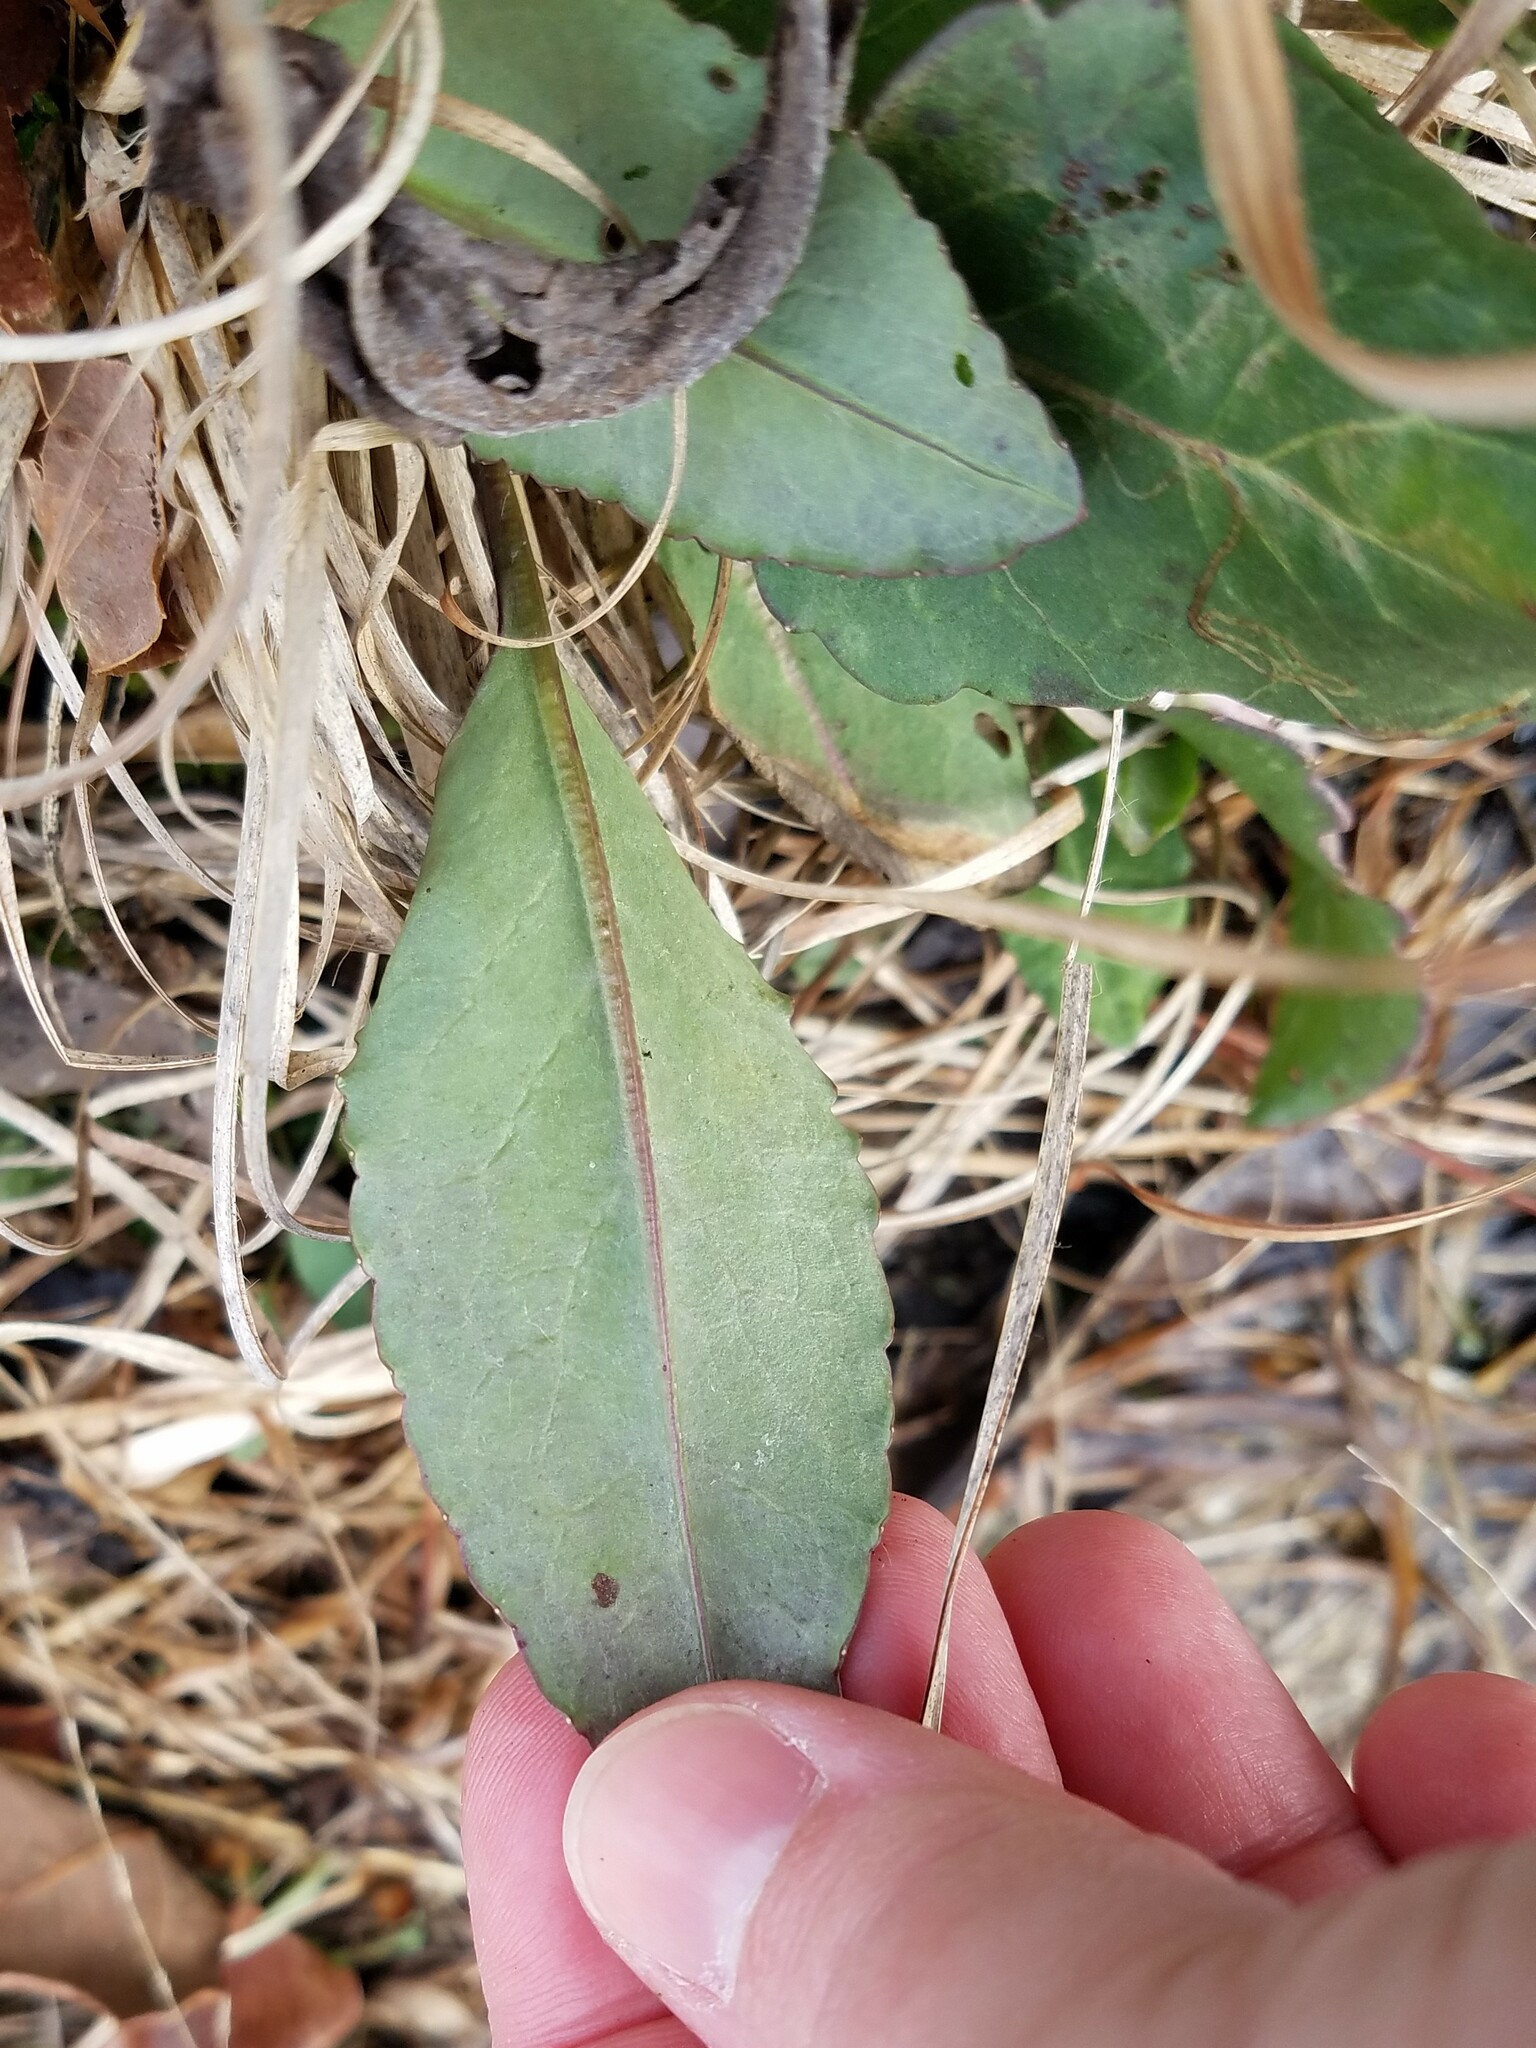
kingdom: Plantae
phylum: Tracheophyta
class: Magnoliopsida
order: Asterales
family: Asteraceae
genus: Packera
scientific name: Packera dubia
